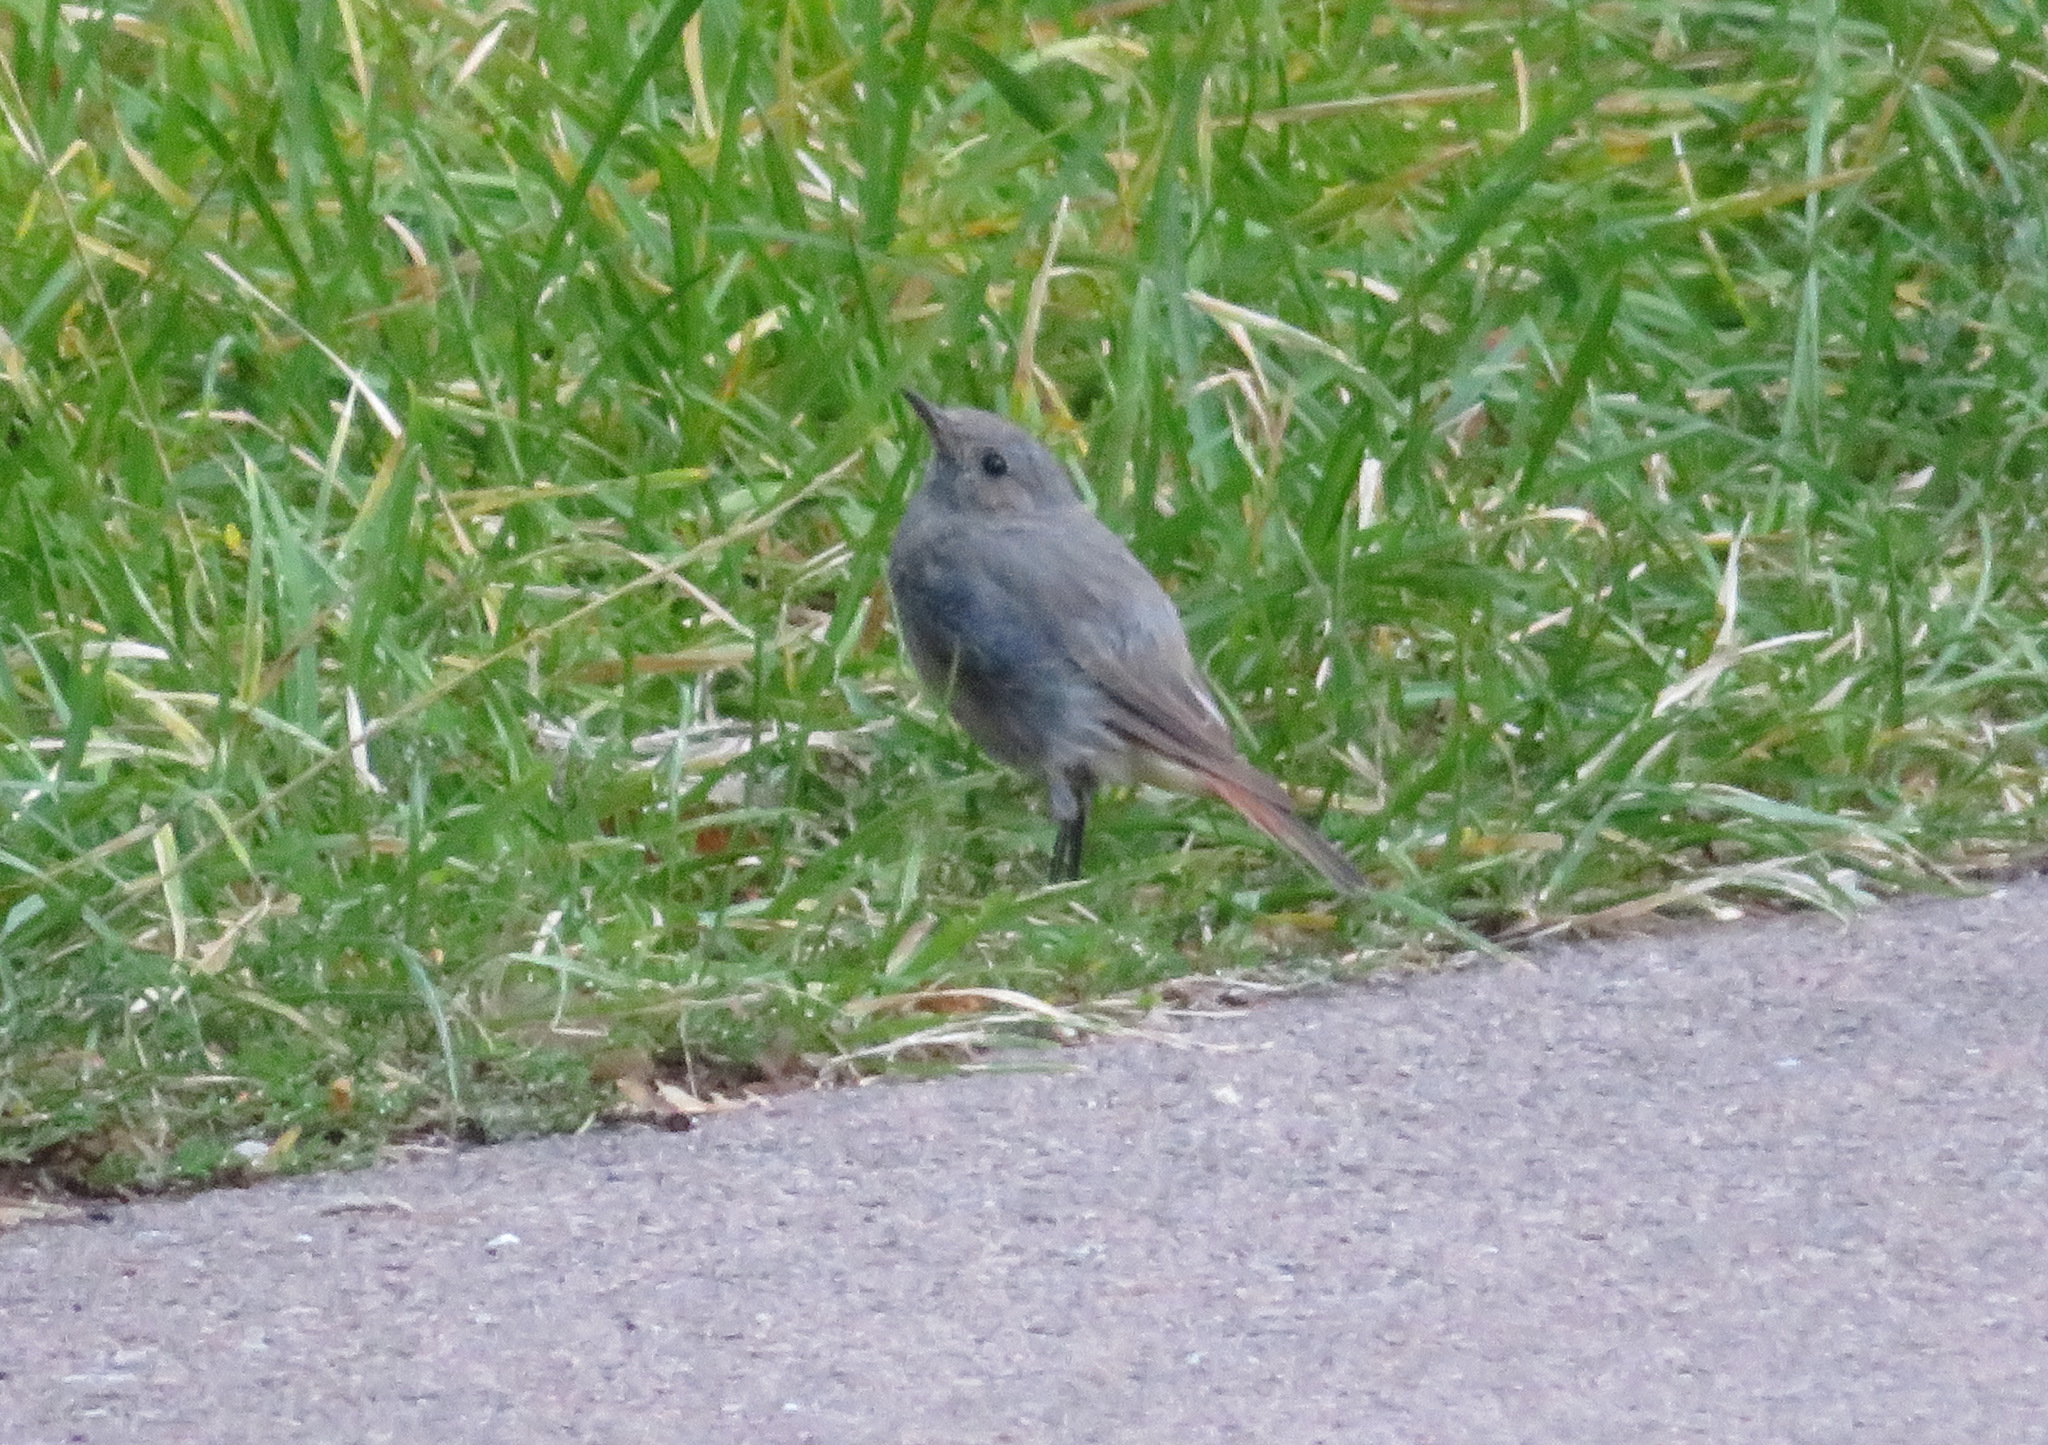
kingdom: Animalia
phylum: Chordata
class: Aves
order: Passeriformes
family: Muscicapidae
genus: Phoenicurus
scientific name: Phoenicurus ochruros
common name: Black redstart
